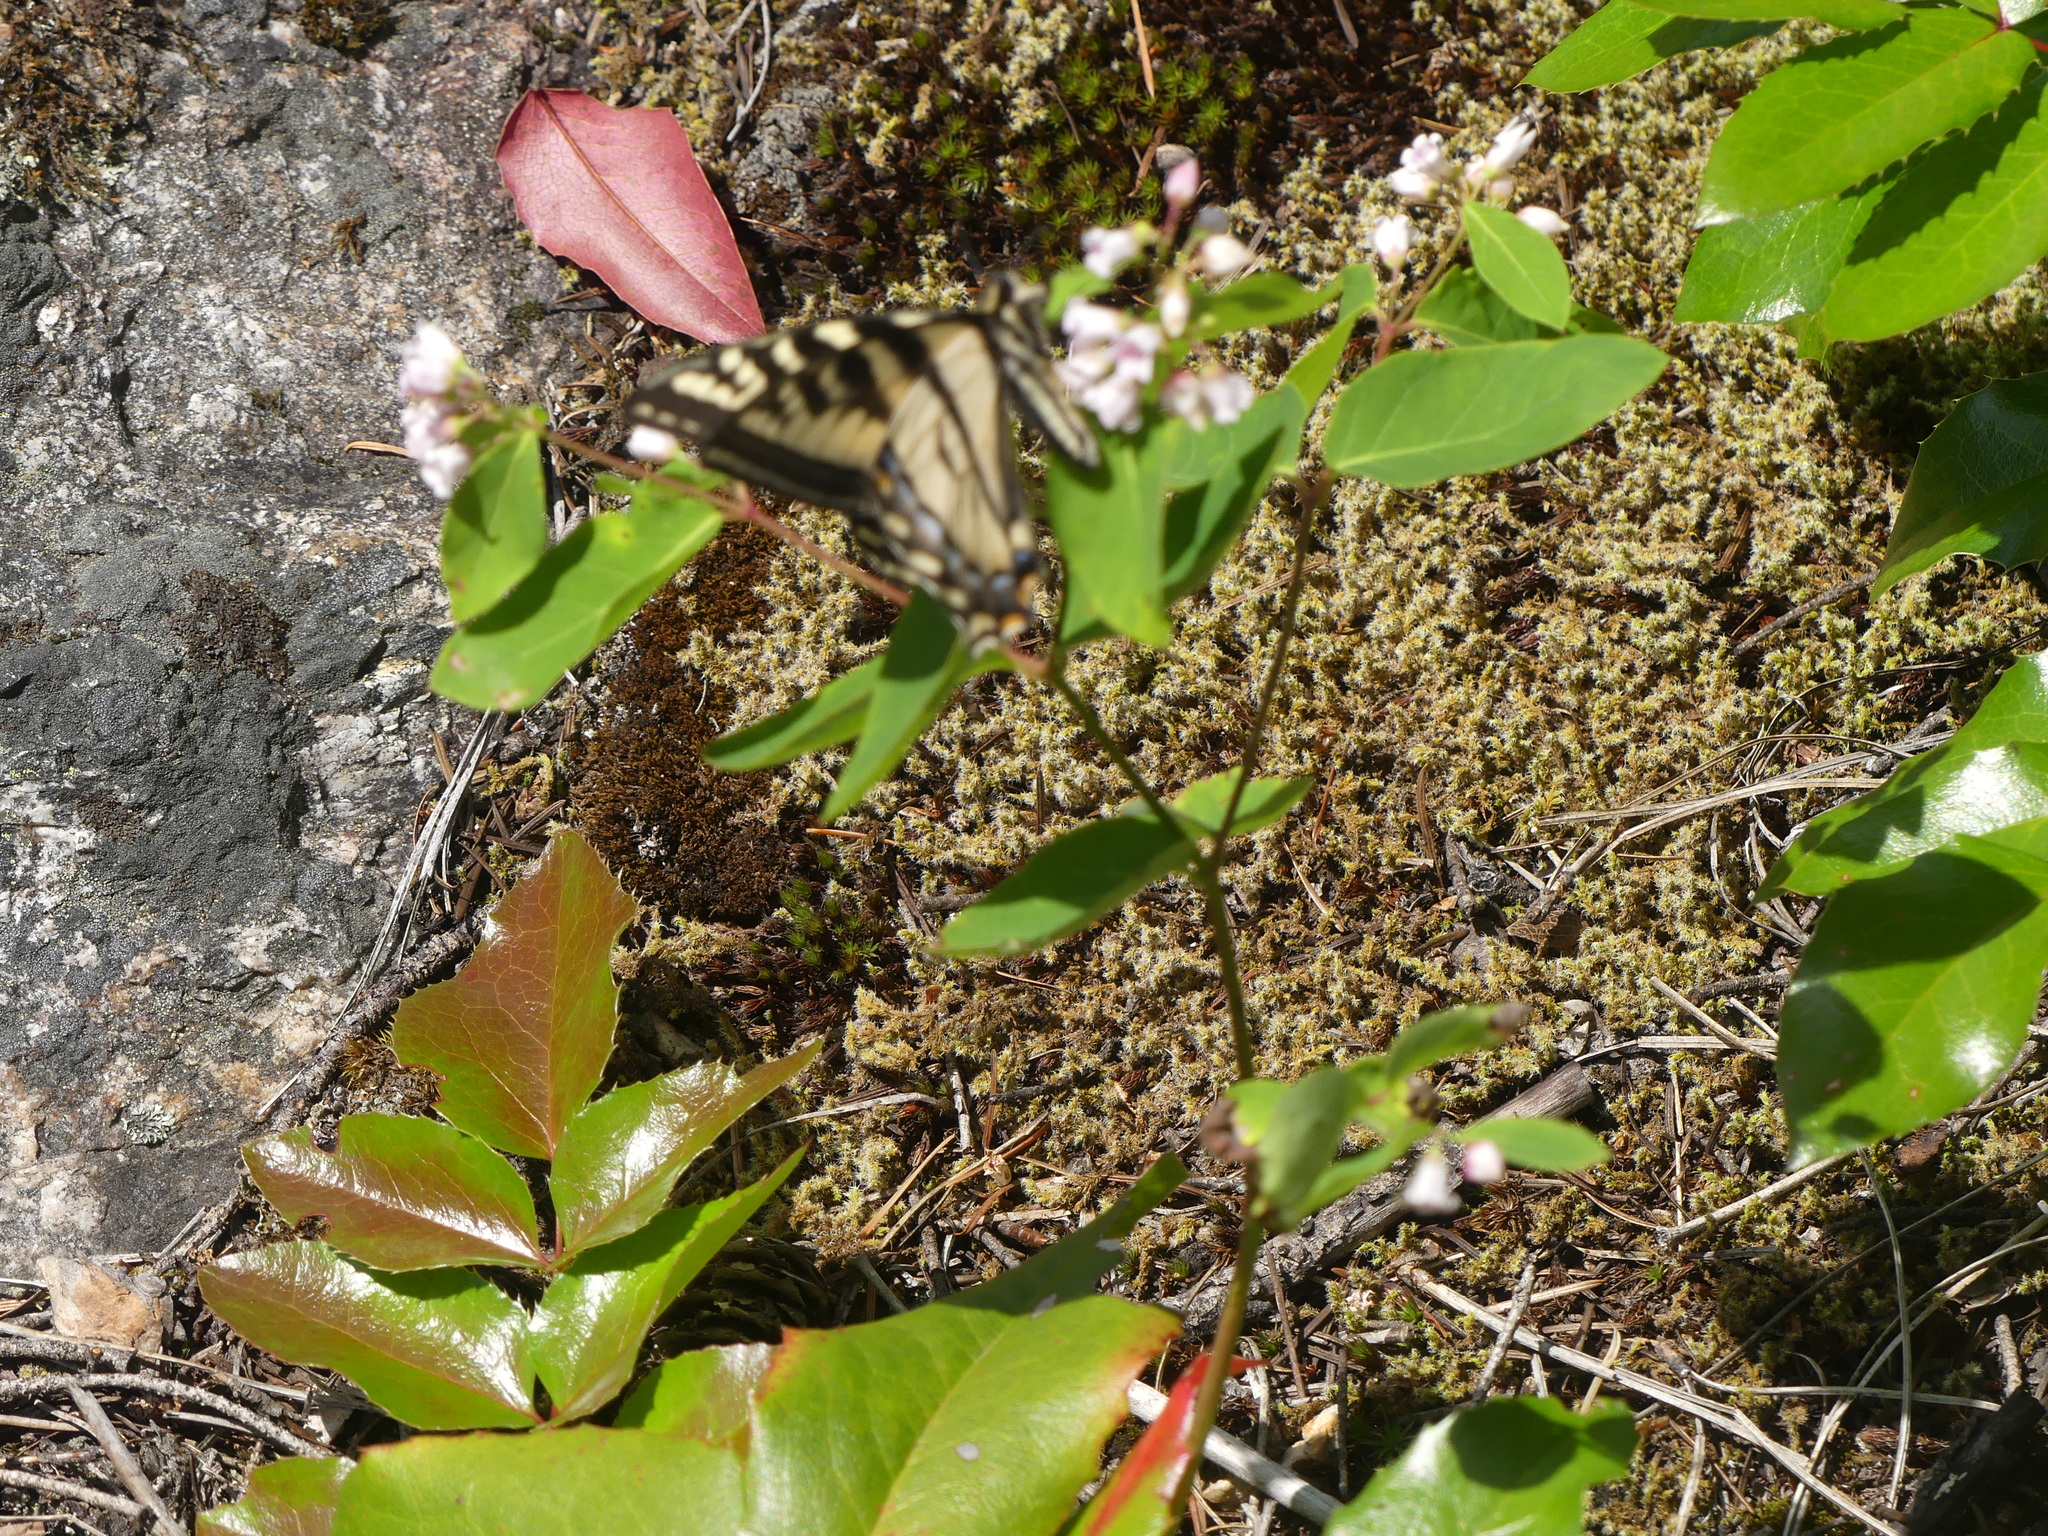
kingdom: Animalia
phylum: Arthropoda
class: Insecta
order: Lepidoptera
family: Papilionidae
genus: Papilio
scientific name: Papilio rutulus
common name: Western tiger swallowtail
